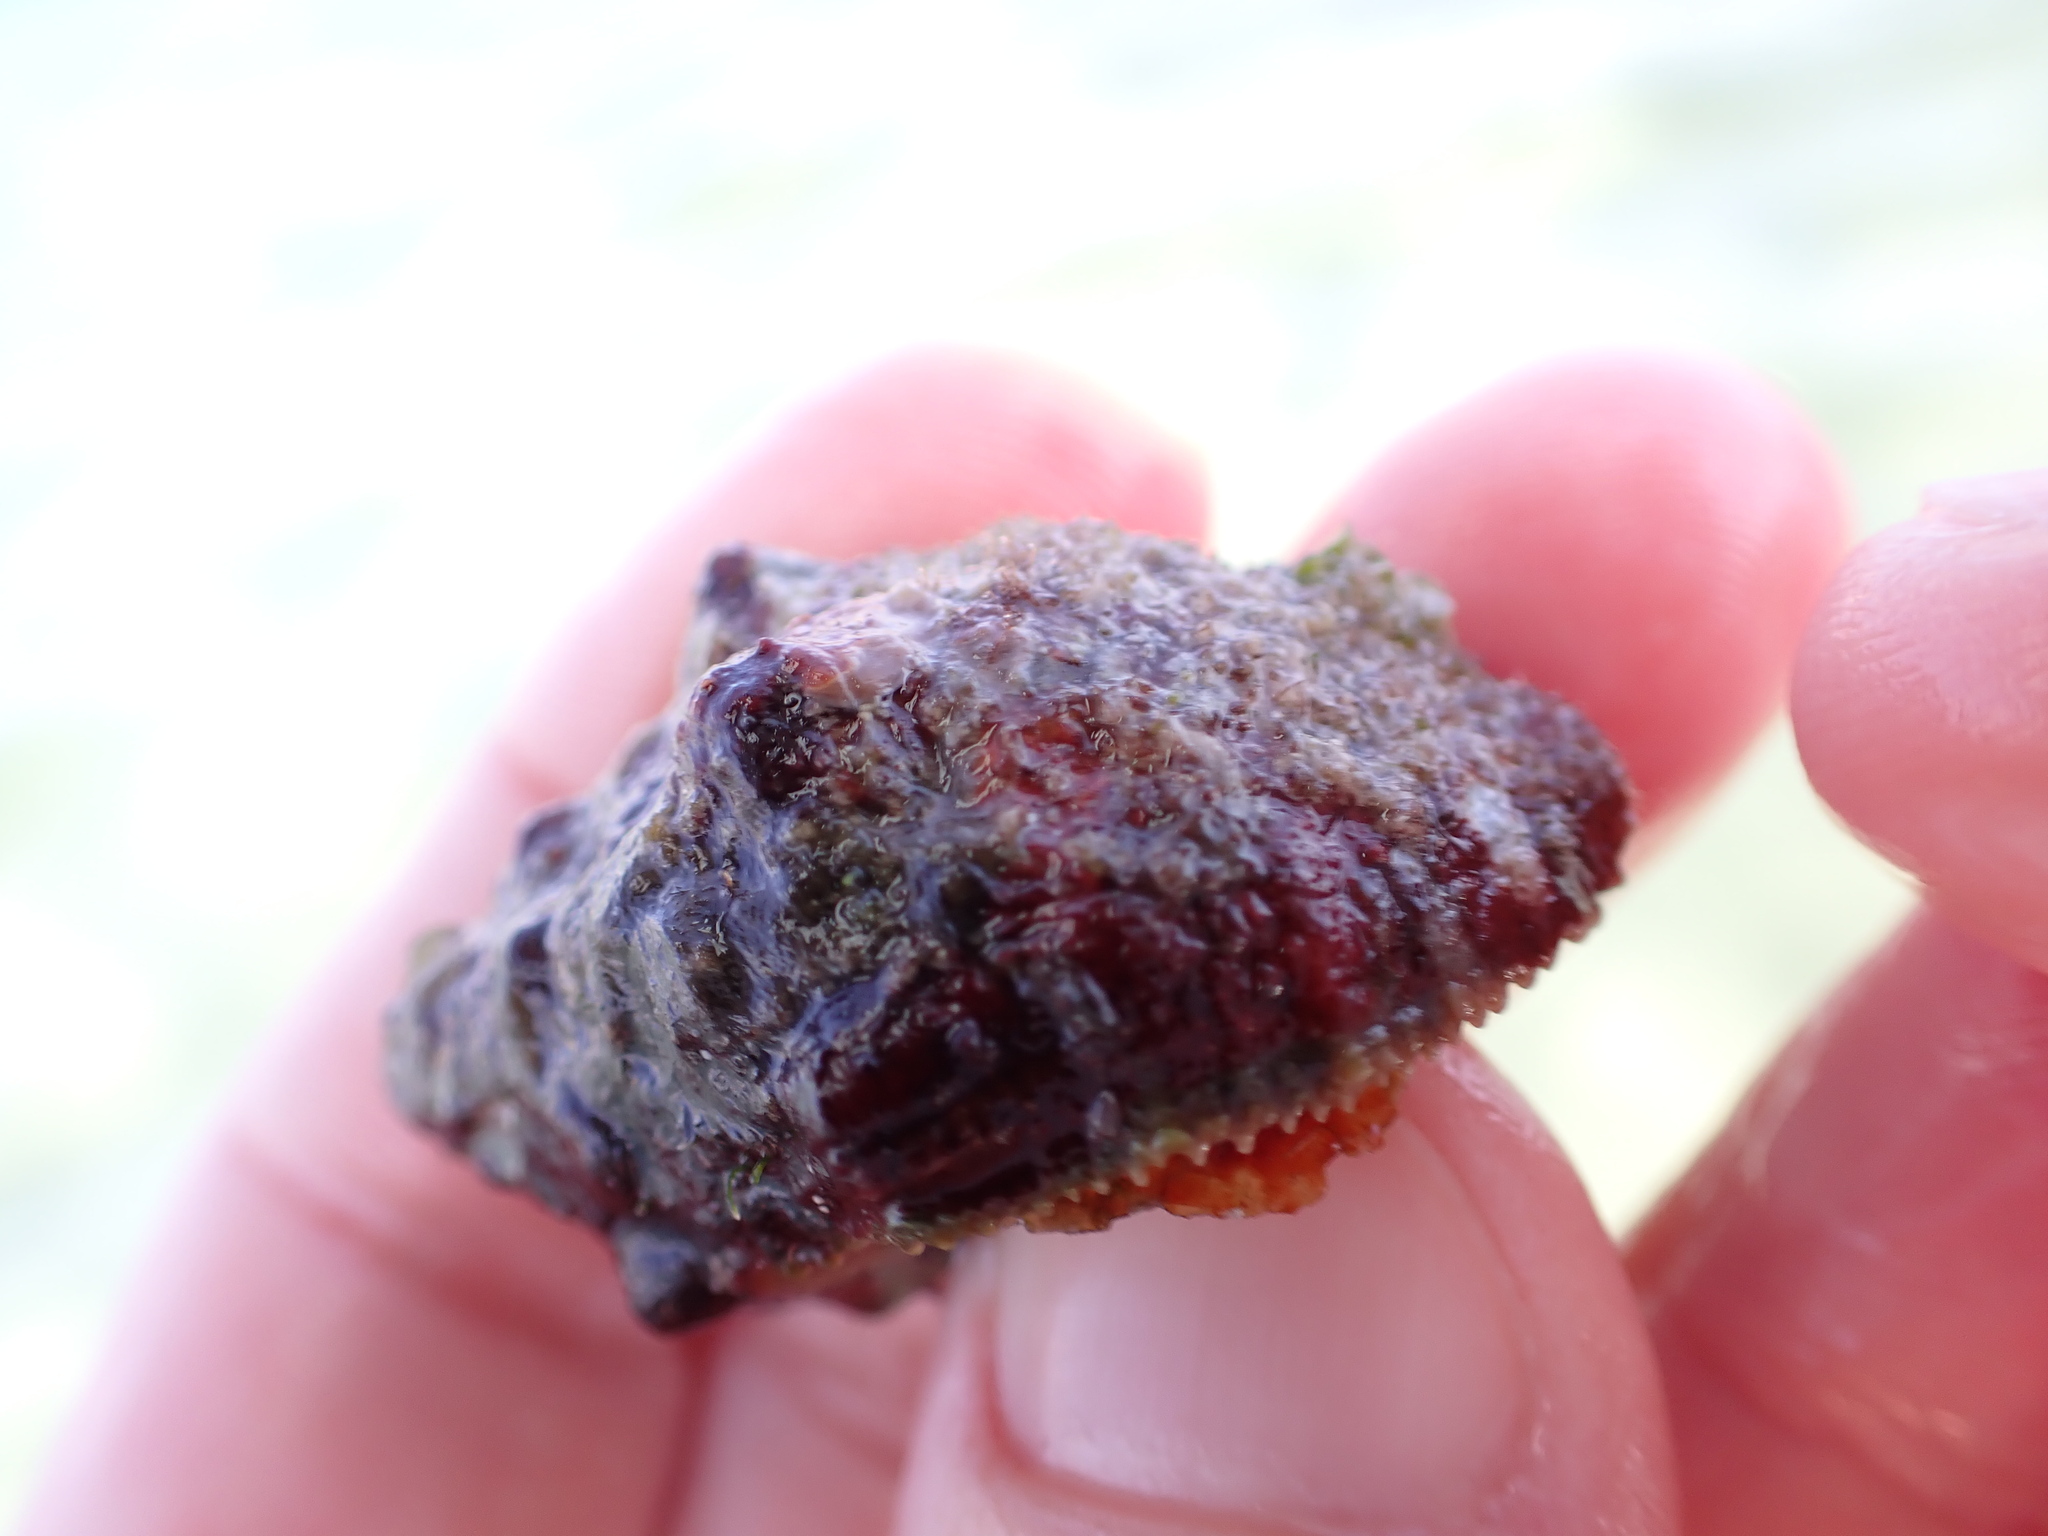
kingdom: Animalia
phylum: Mollusca
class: Gastropoda
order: Neogastropoda
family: Muricidae
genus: Stramonita
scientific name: Stramonita haemastoma
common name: Florida dog winkle
